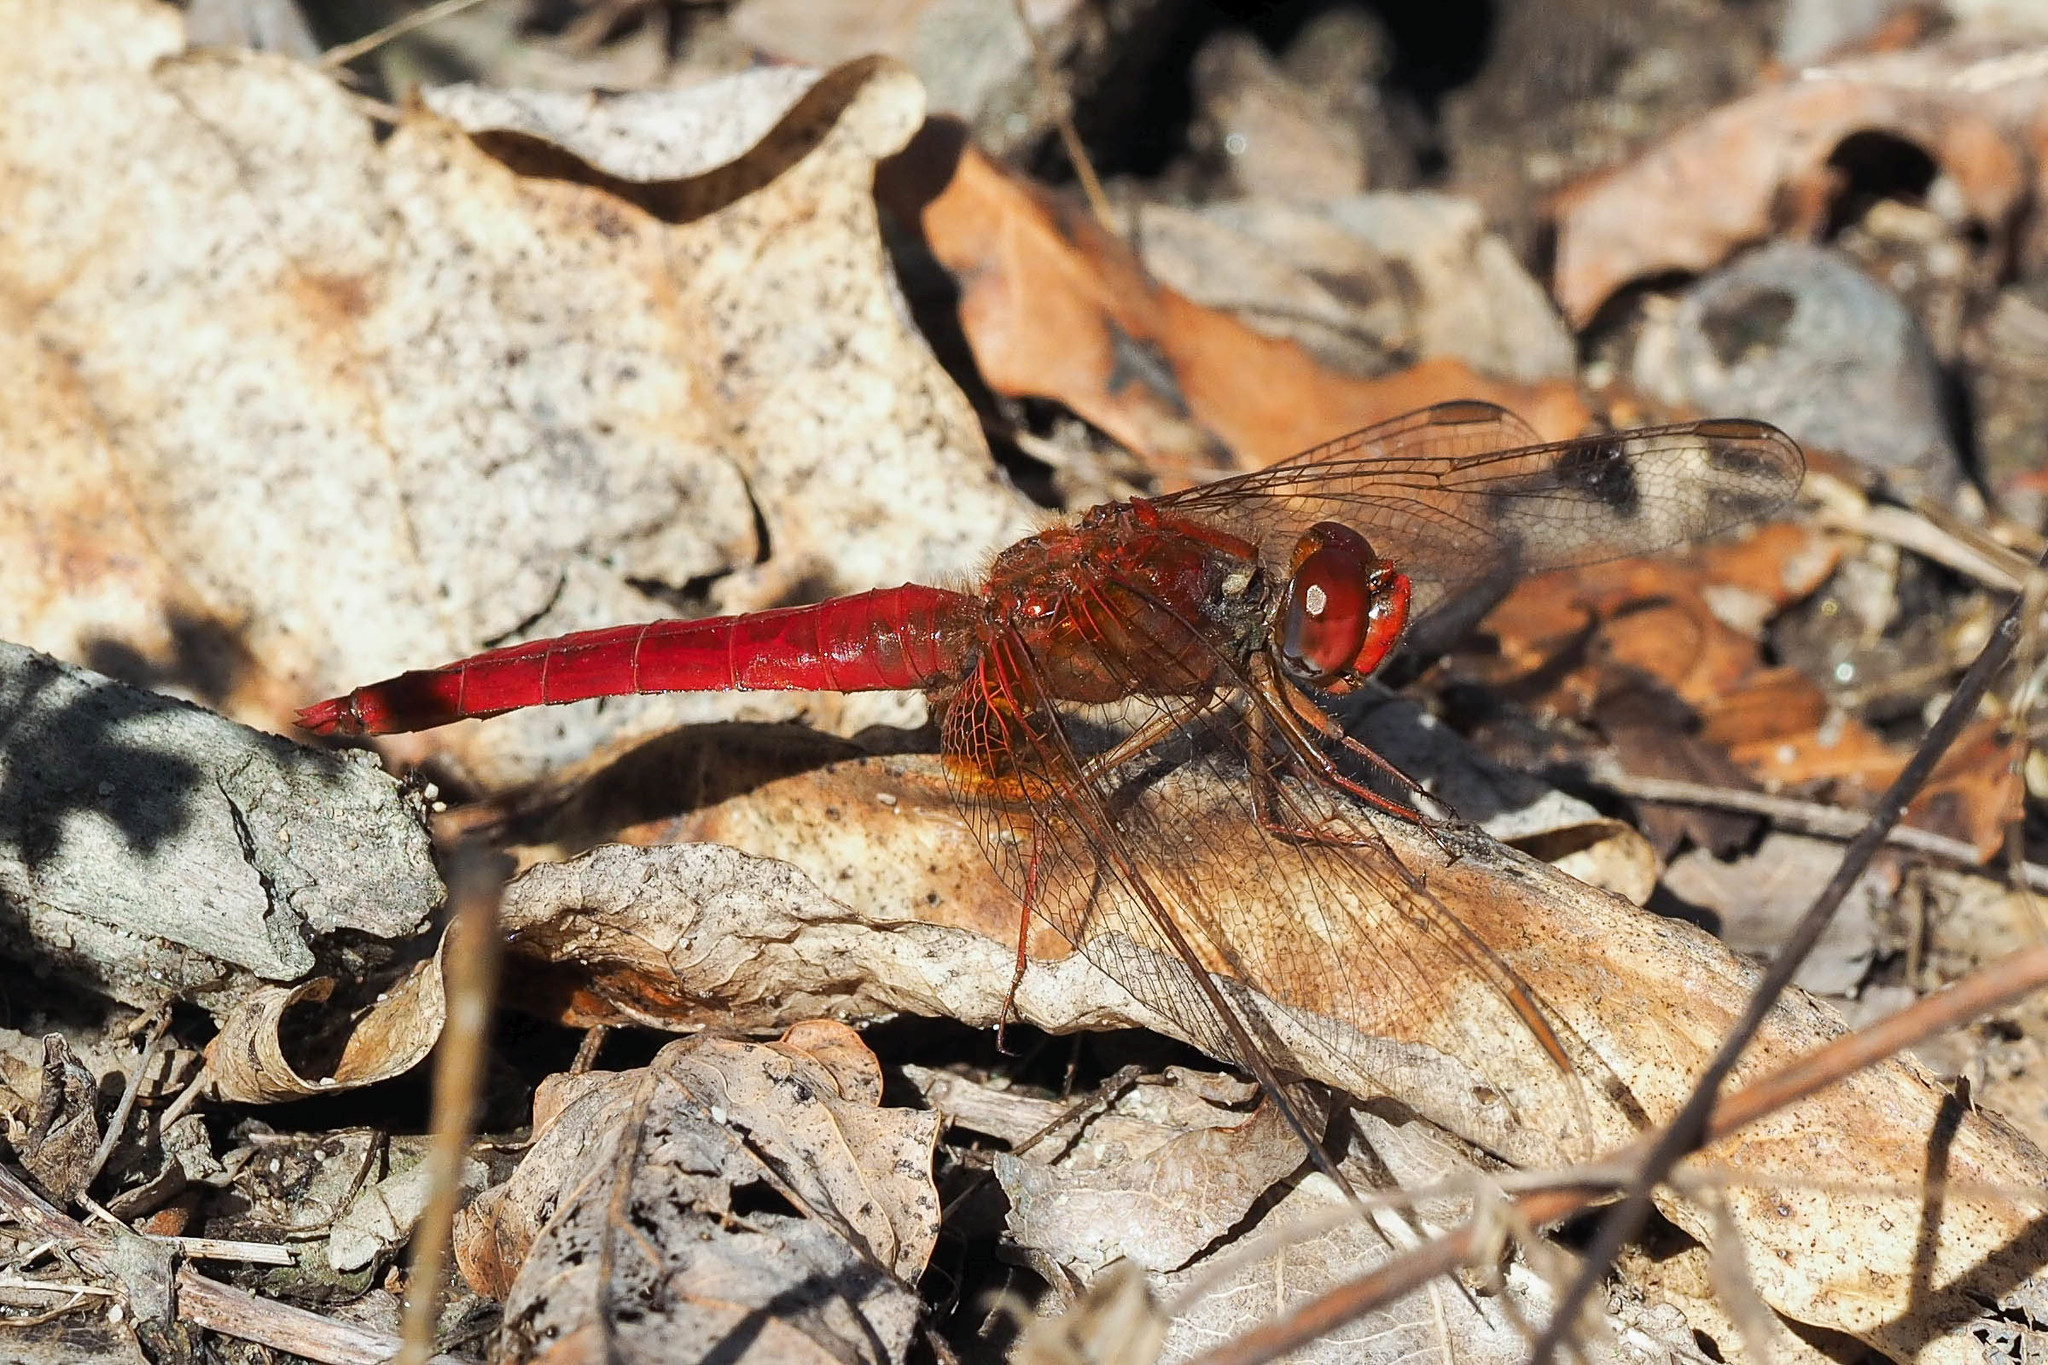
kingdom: Animalia
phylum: Arthropoda
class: Insecta
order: Odonata
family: Libellulidae
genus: Crocothemis
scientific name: Crocothemis erythraea
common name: Scarlet dragonfly
